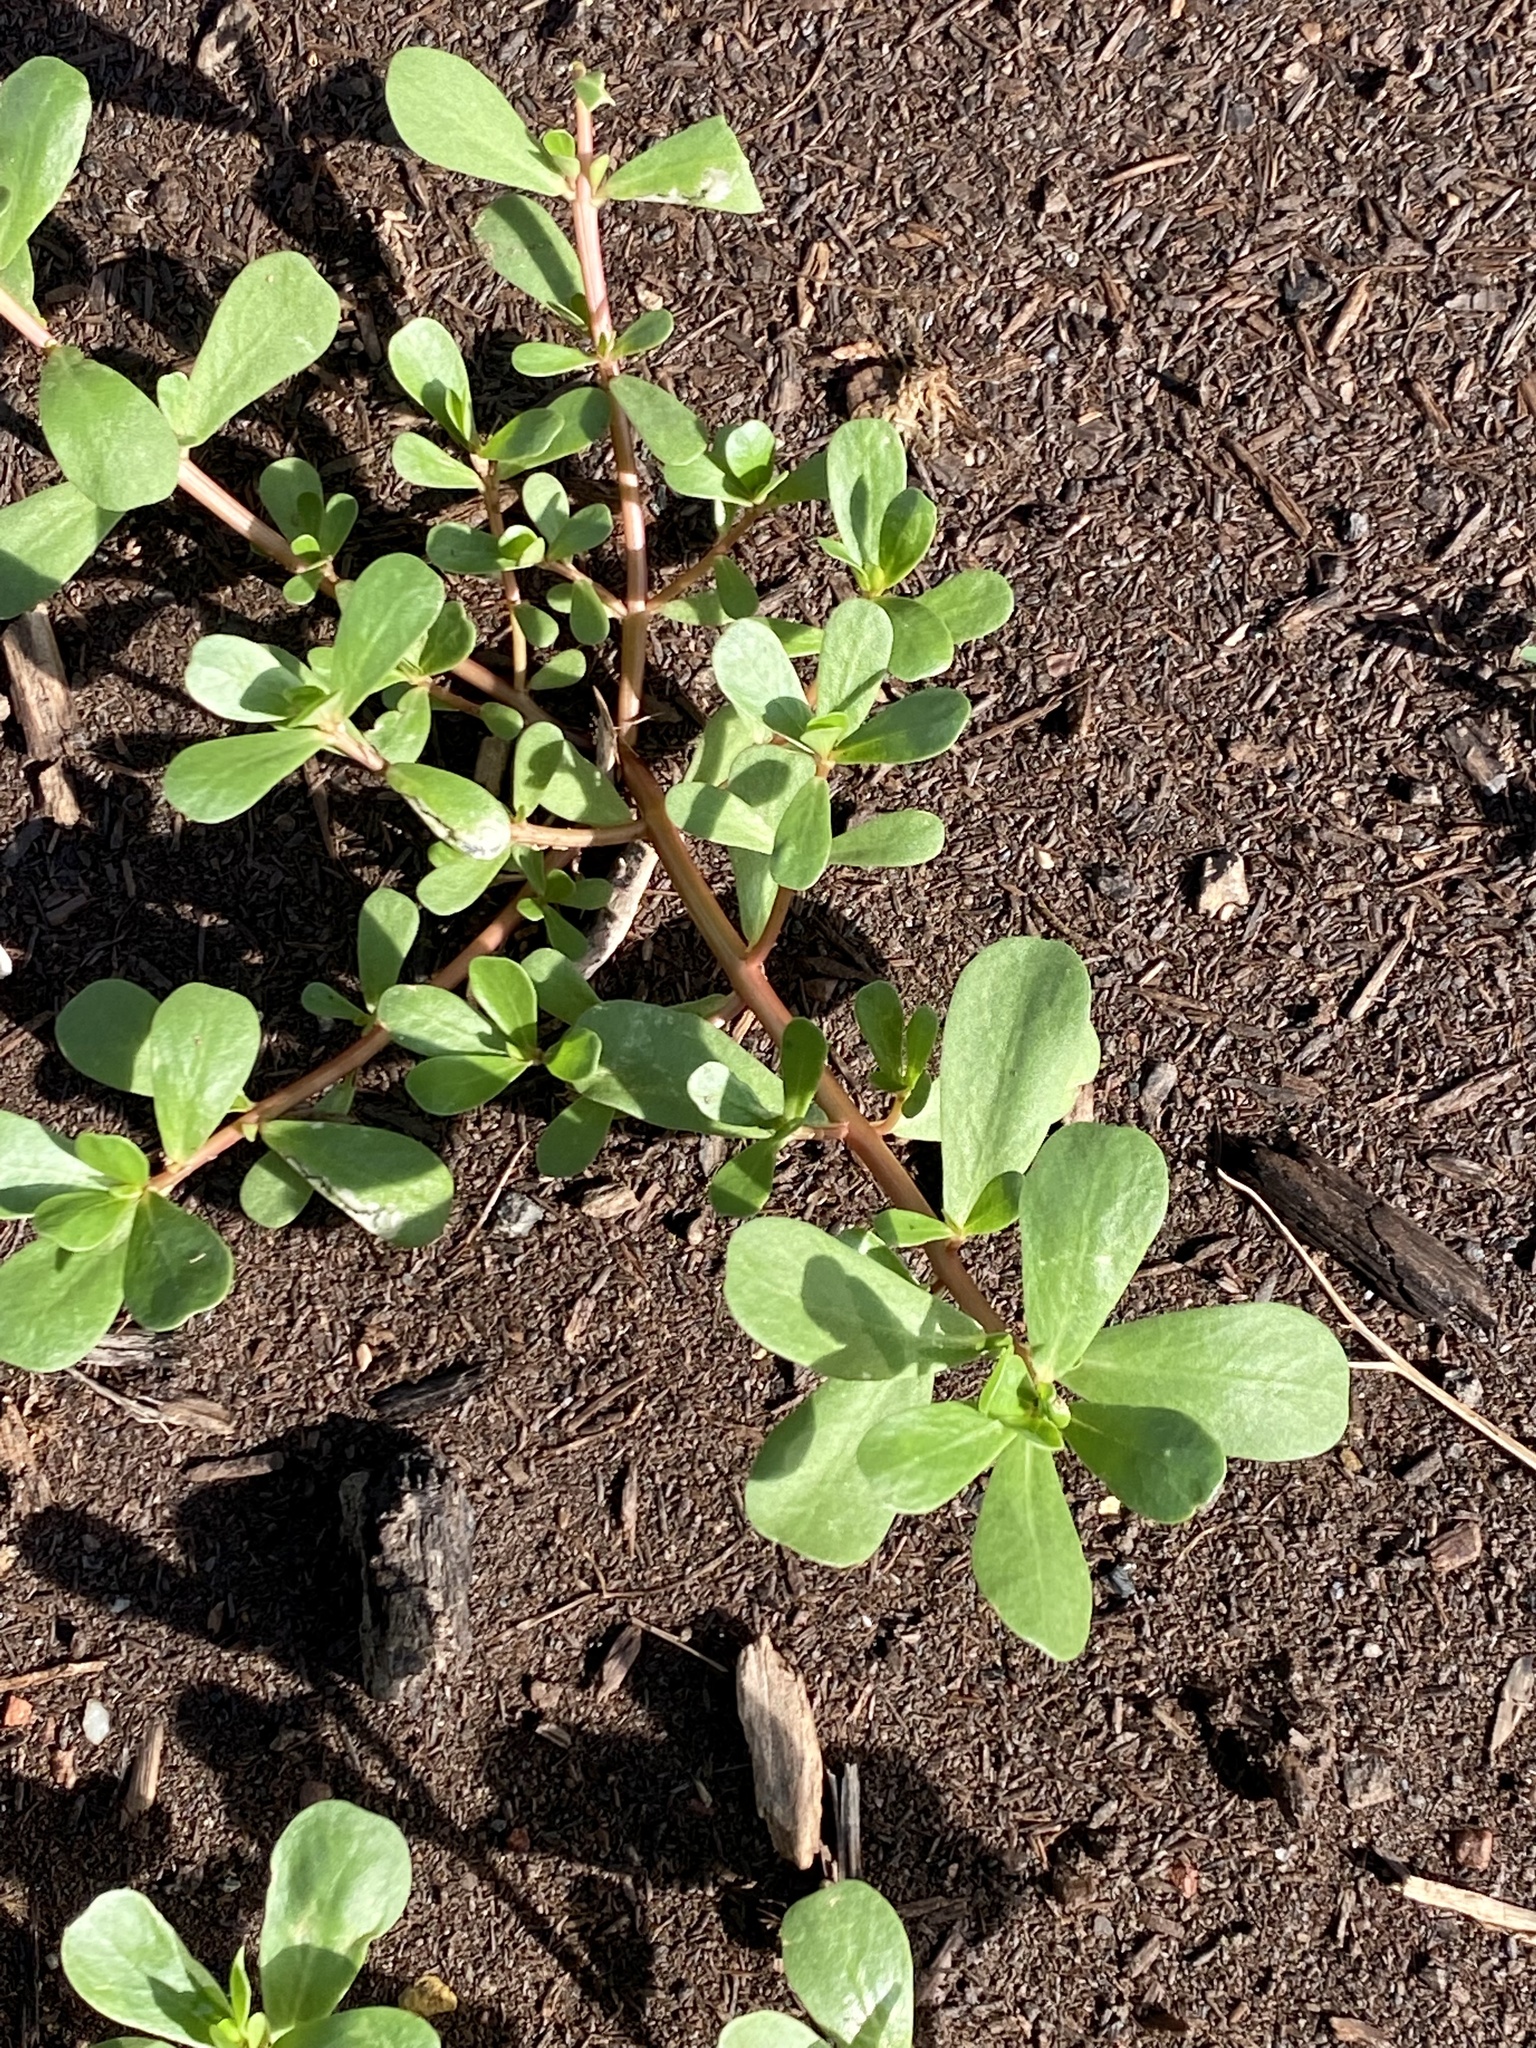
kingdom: Plantae
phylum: Tracheophyta
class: Magnoliopsida
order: Caryophyllales
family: Portulacaceae
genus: Portulaca
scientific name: Portulaca oleracea
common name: Common purslane
